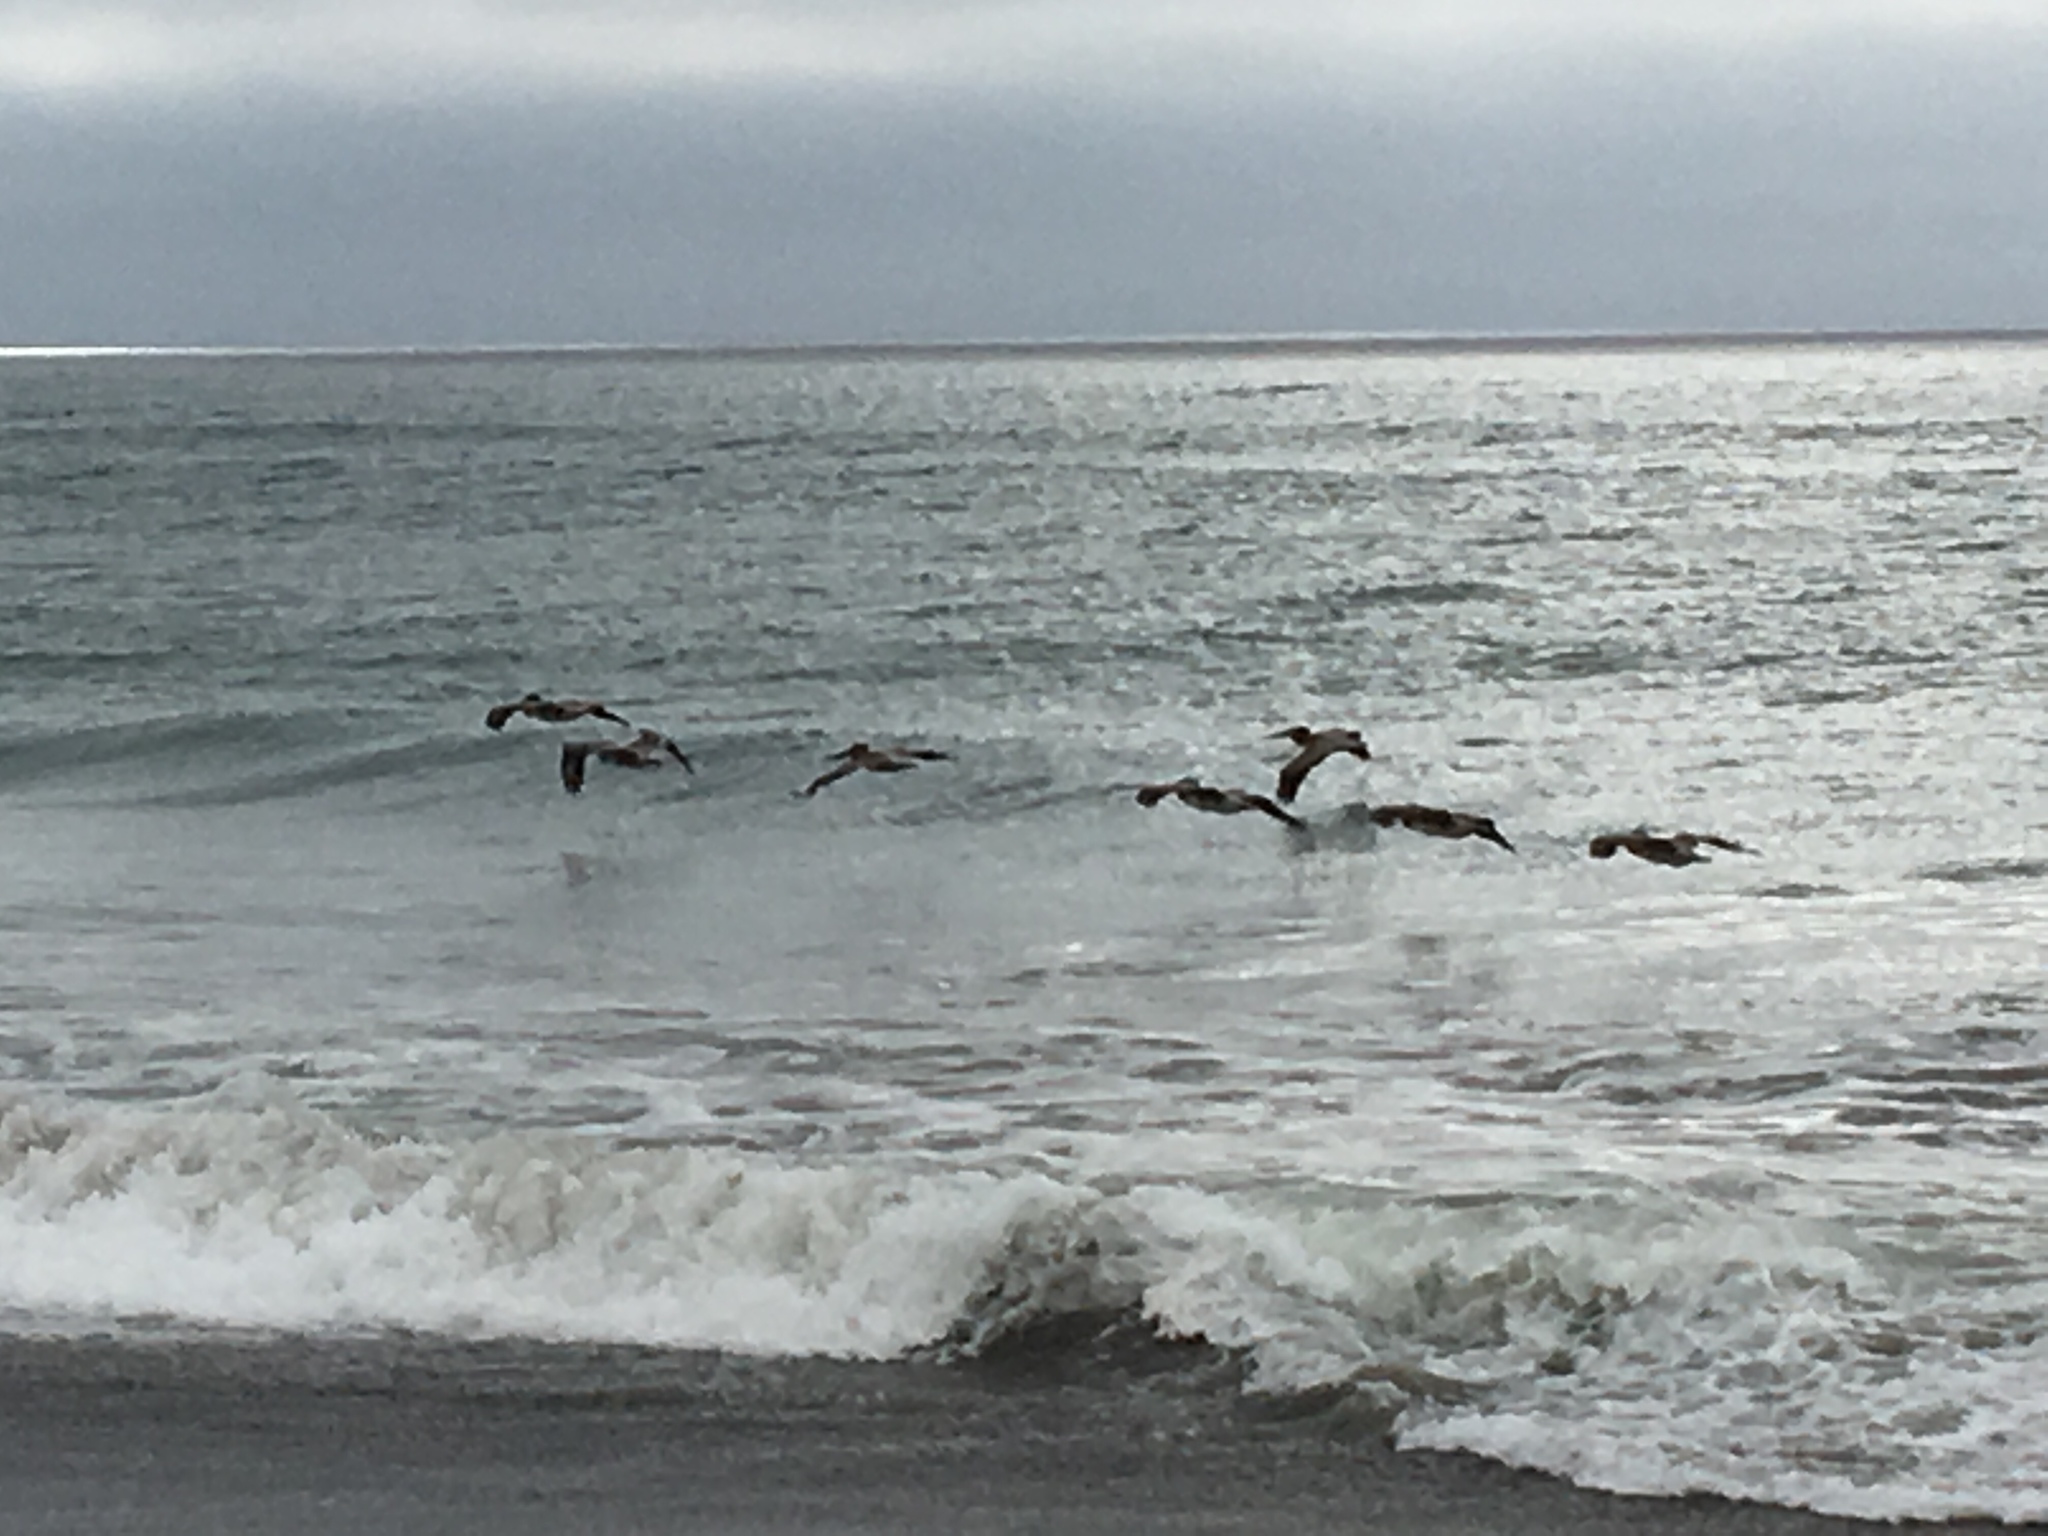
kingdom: Animalia
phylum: Chordata
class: Aves
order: Pelecaniformes
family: Pelecanidae
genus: Pelecanus
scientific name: Pelecanus occidentalis
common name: Brown pelican
